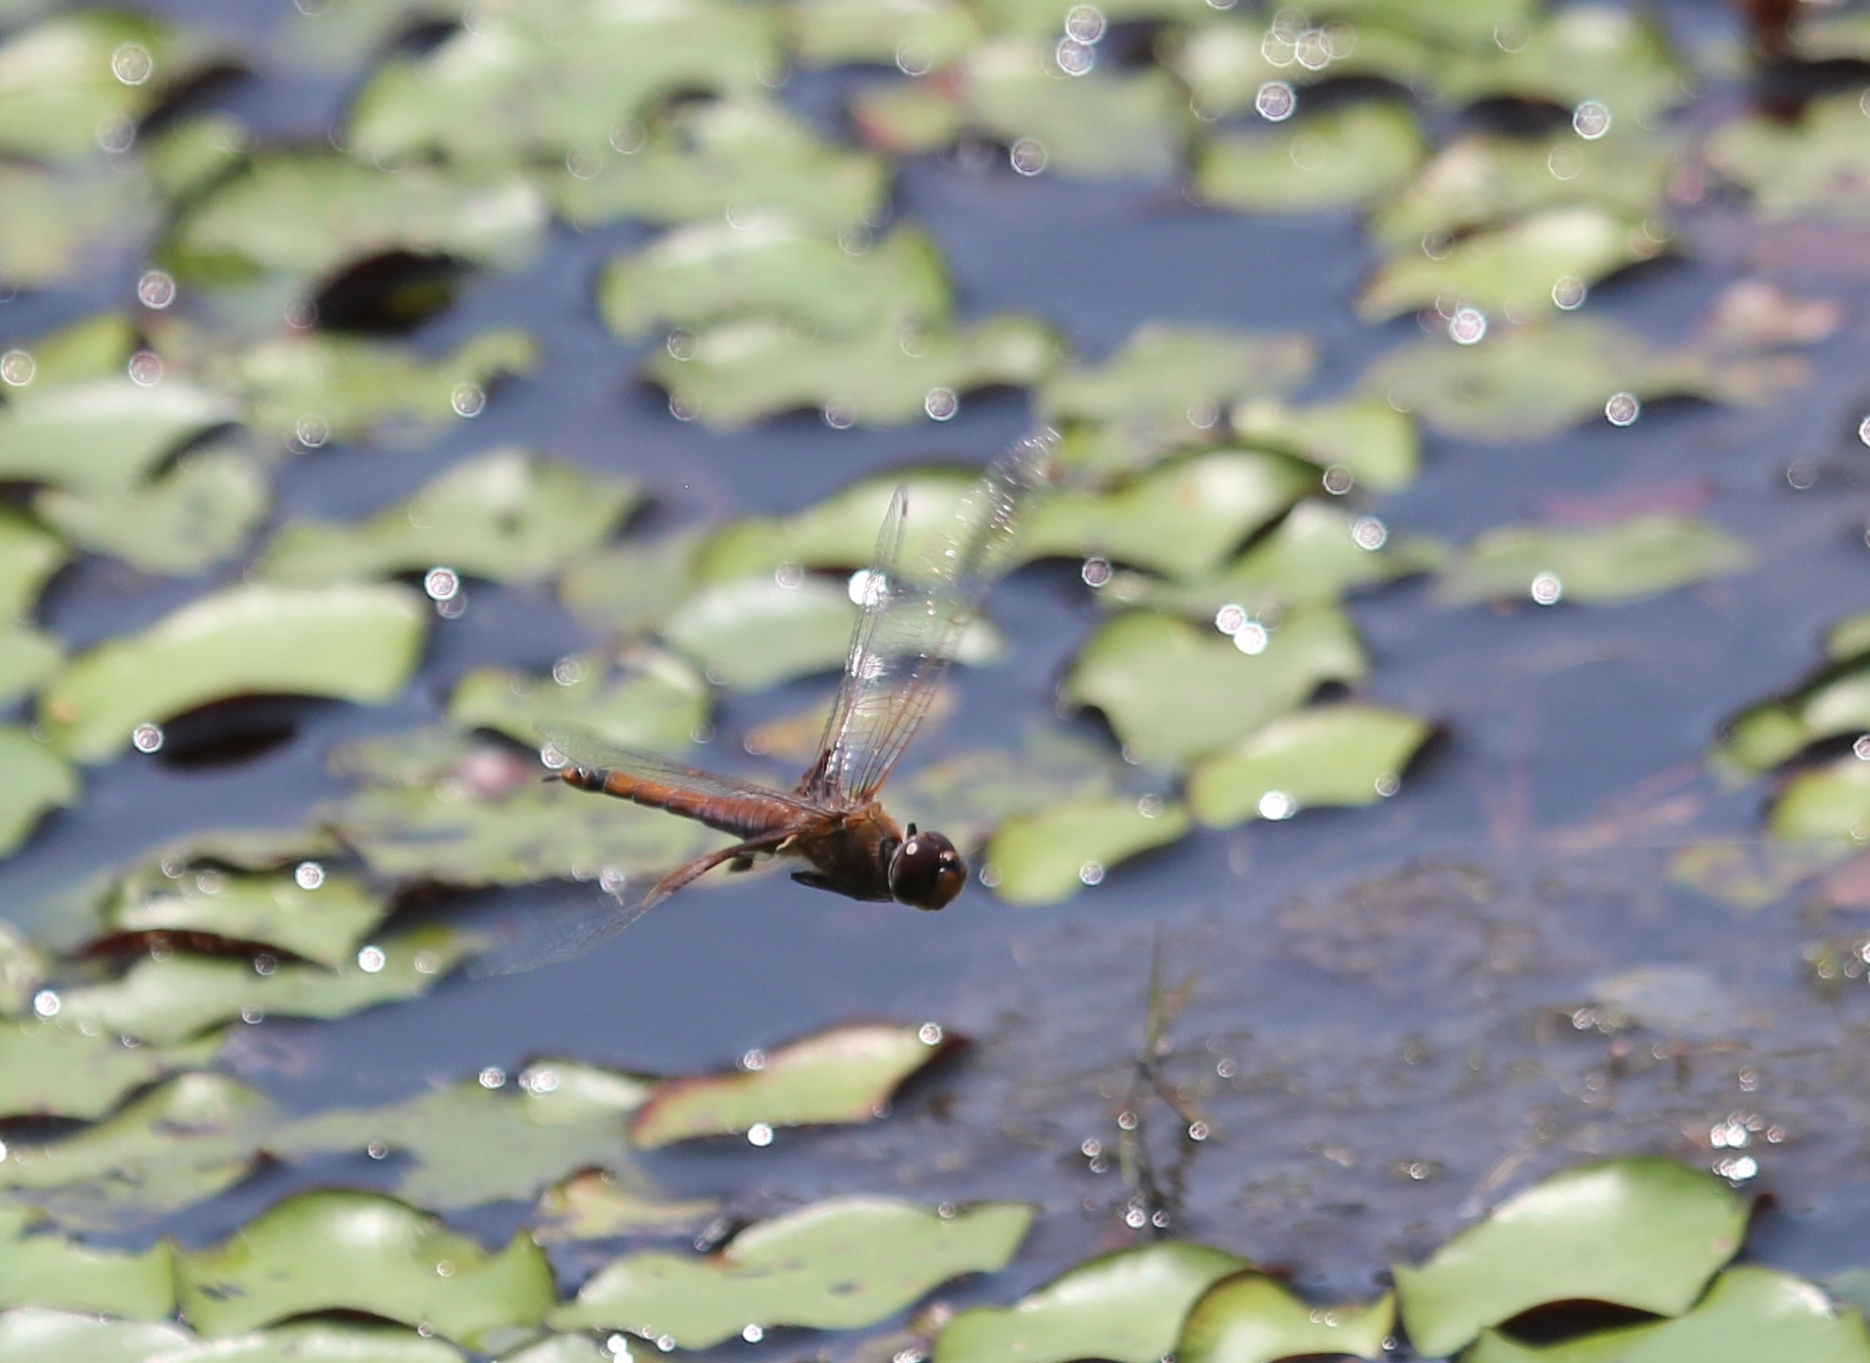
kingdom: Animalia
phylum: Arthropoda
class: Insecta
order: Odonata
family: Libellulidae
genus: Tramea
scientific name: Tramea carolina
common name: Carolina saddlebags
